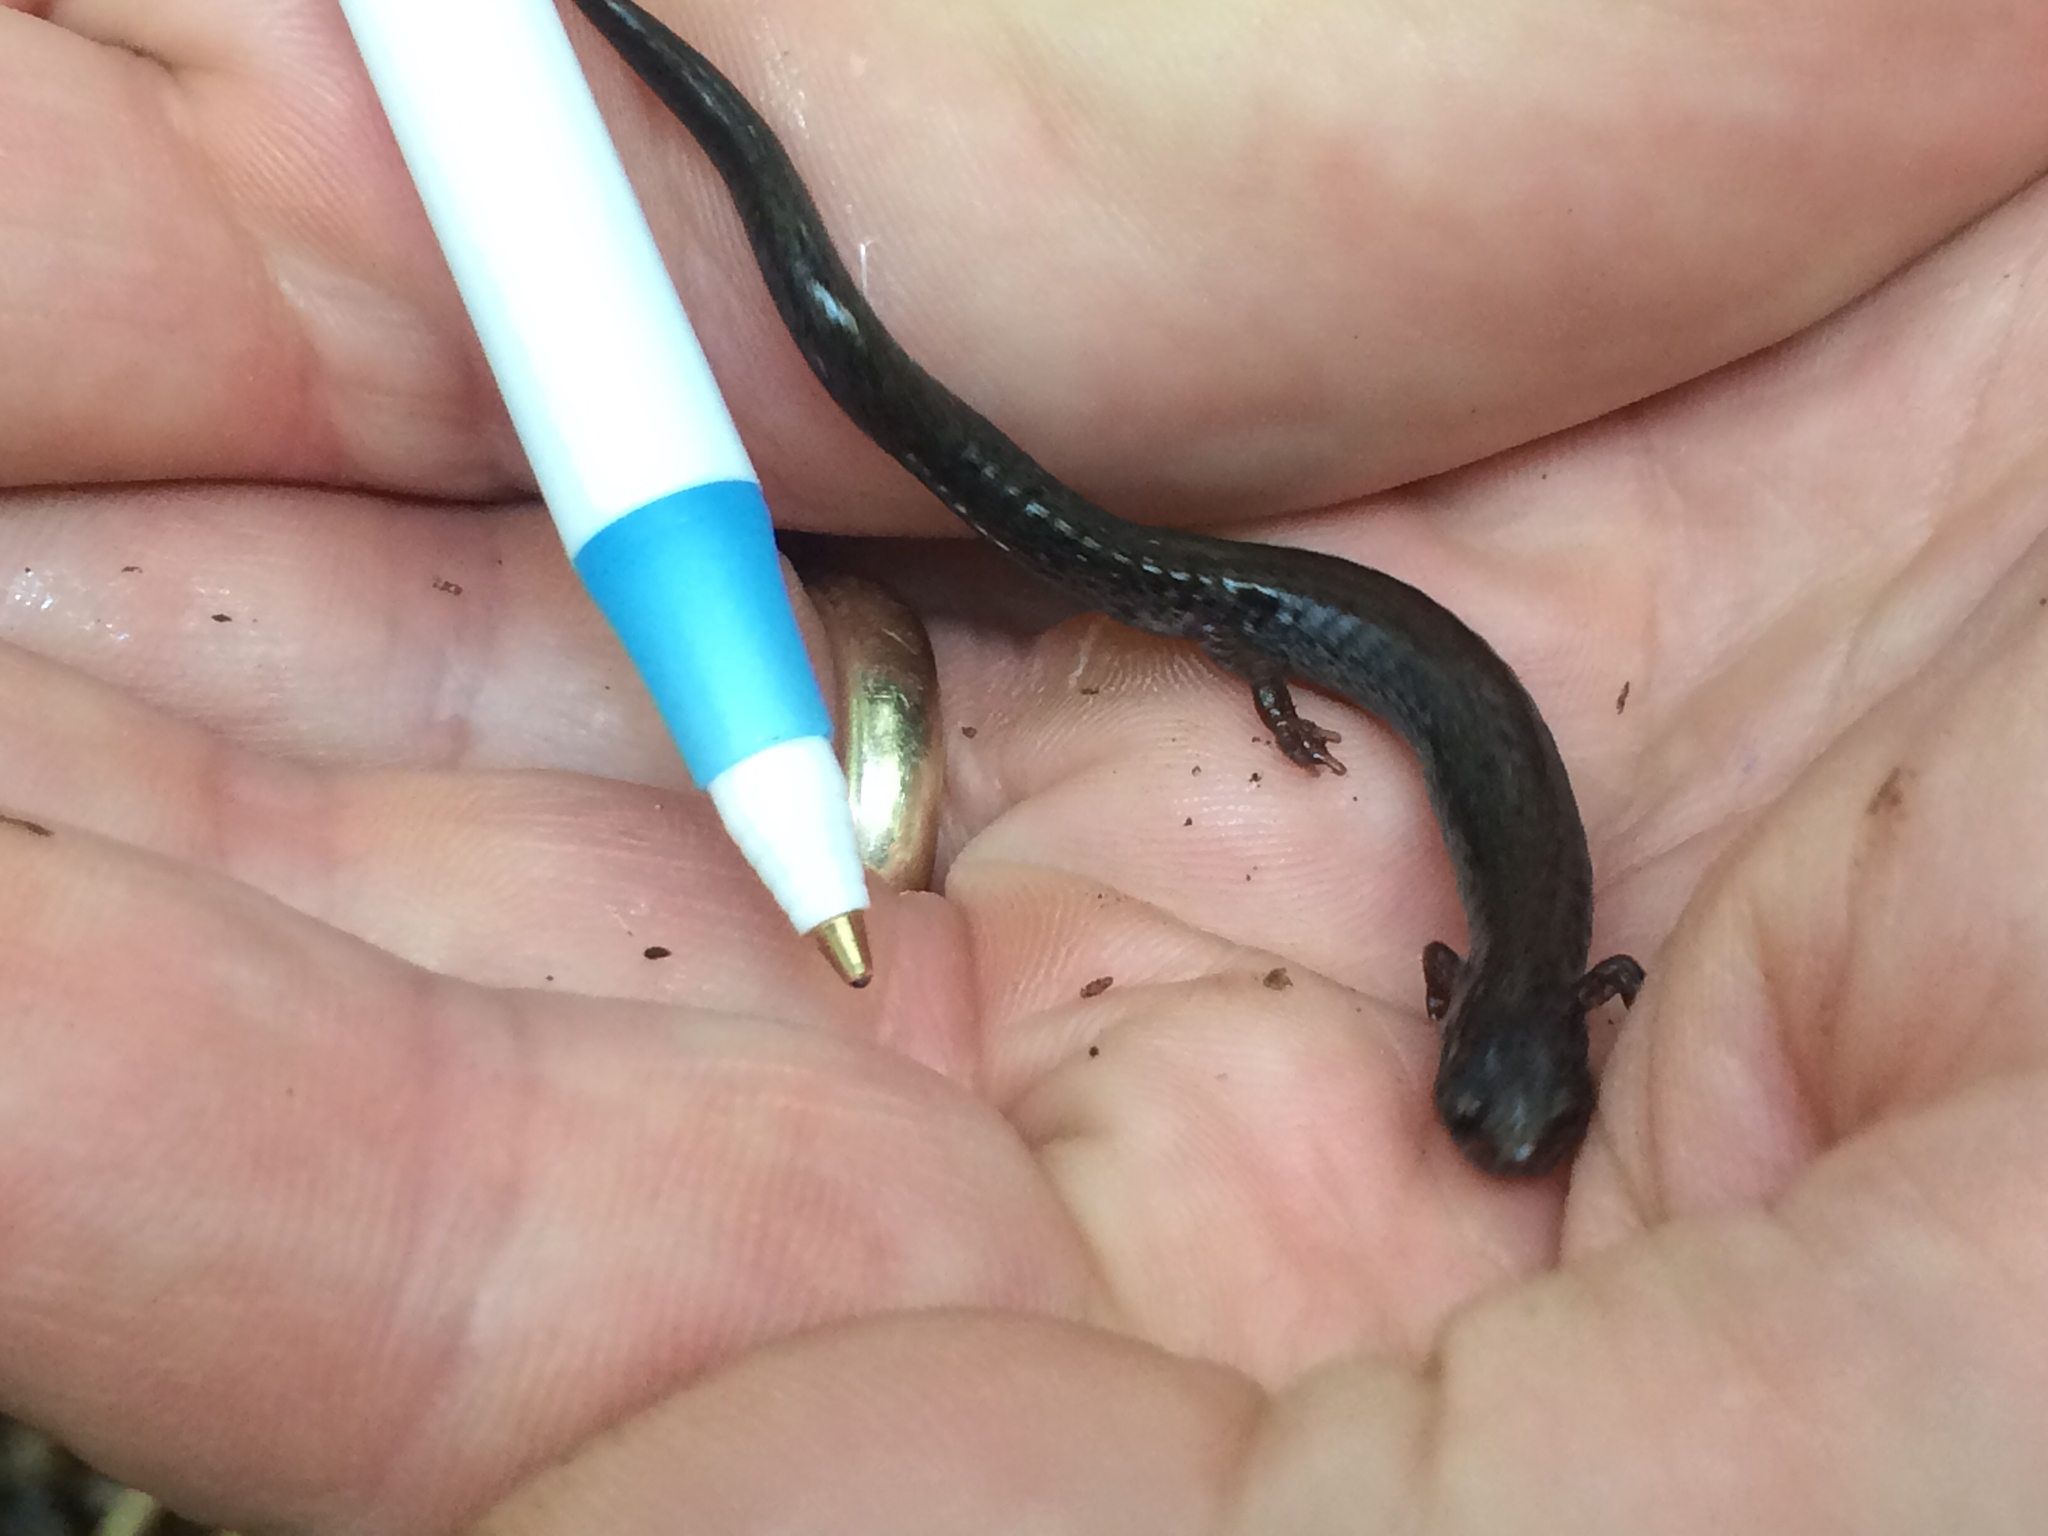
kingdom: Animalia
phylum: Chordata
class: Amphibia
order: Caudata
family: Plethodontidae
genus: Plethodon
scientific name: Plethodon cinereus
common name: Redback salamander
